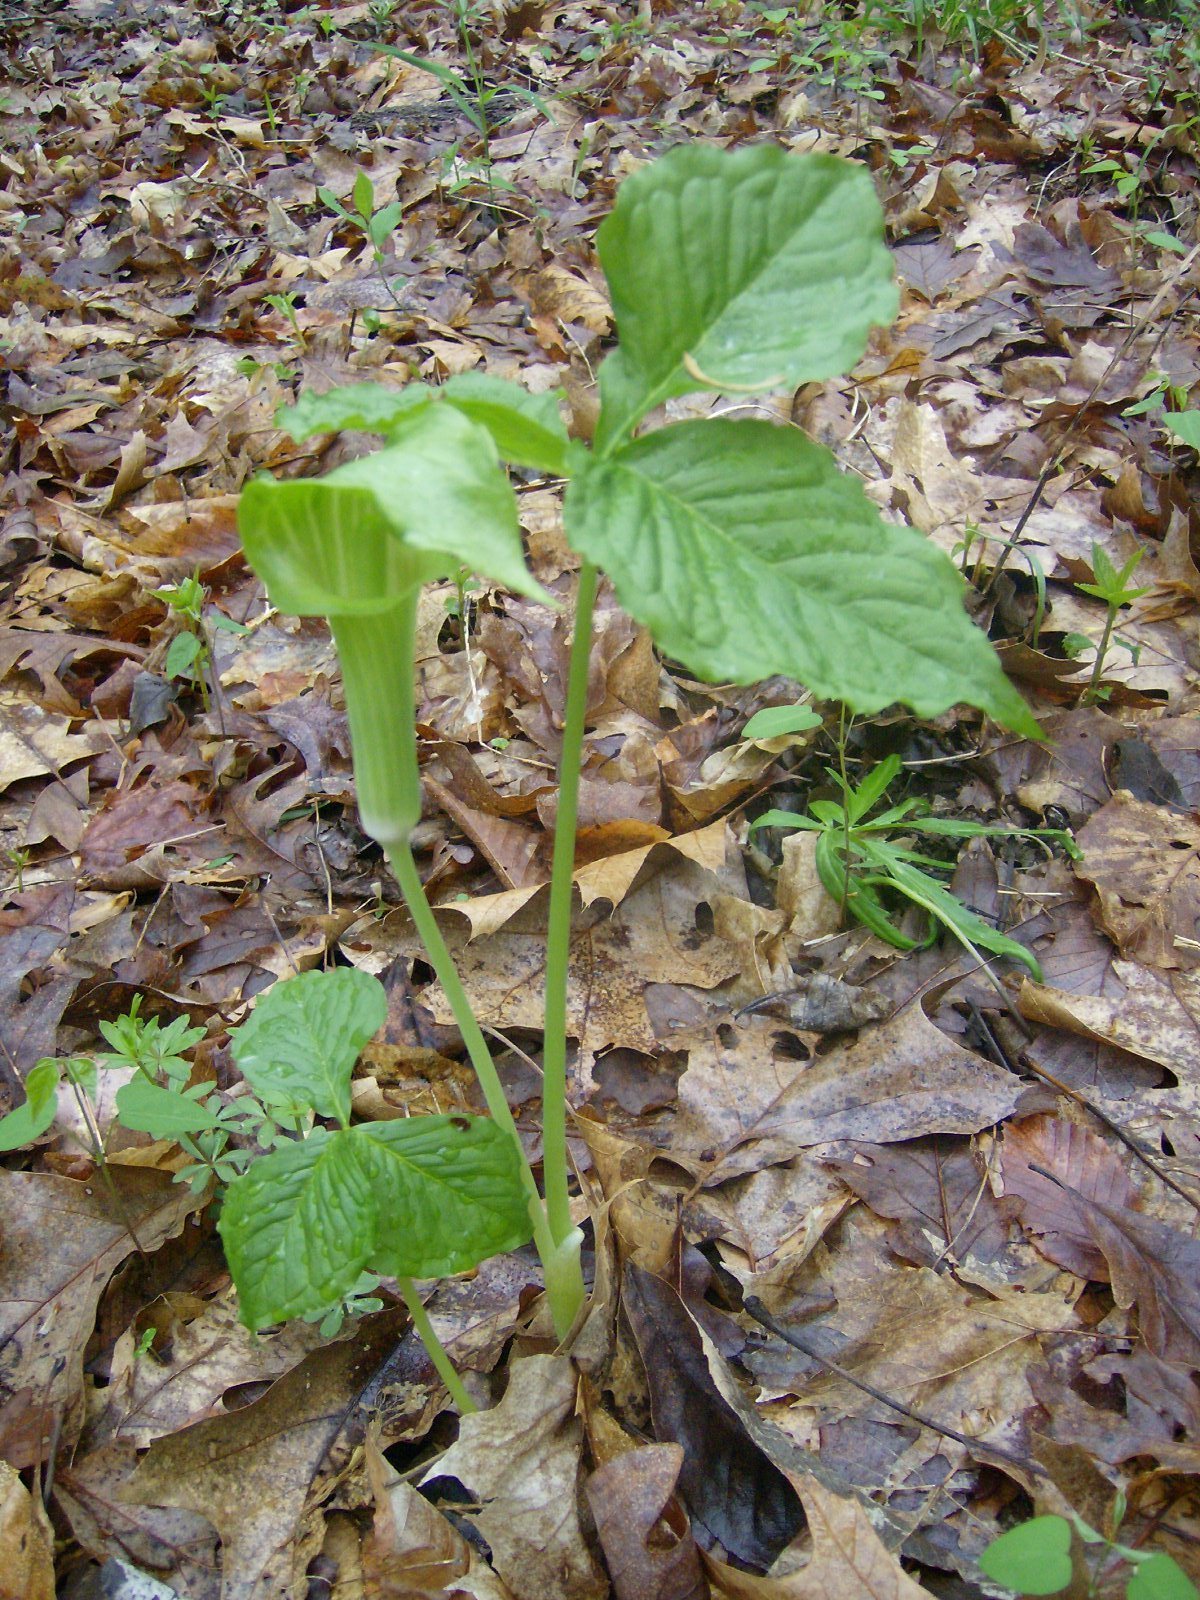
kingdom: Plantae
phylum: Tracheophyta
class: Liliopsida
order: Alismatales
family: Araceae
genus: Arisaema
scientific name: Arisaema triphyllum
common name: Jack-in-the-pulpit
